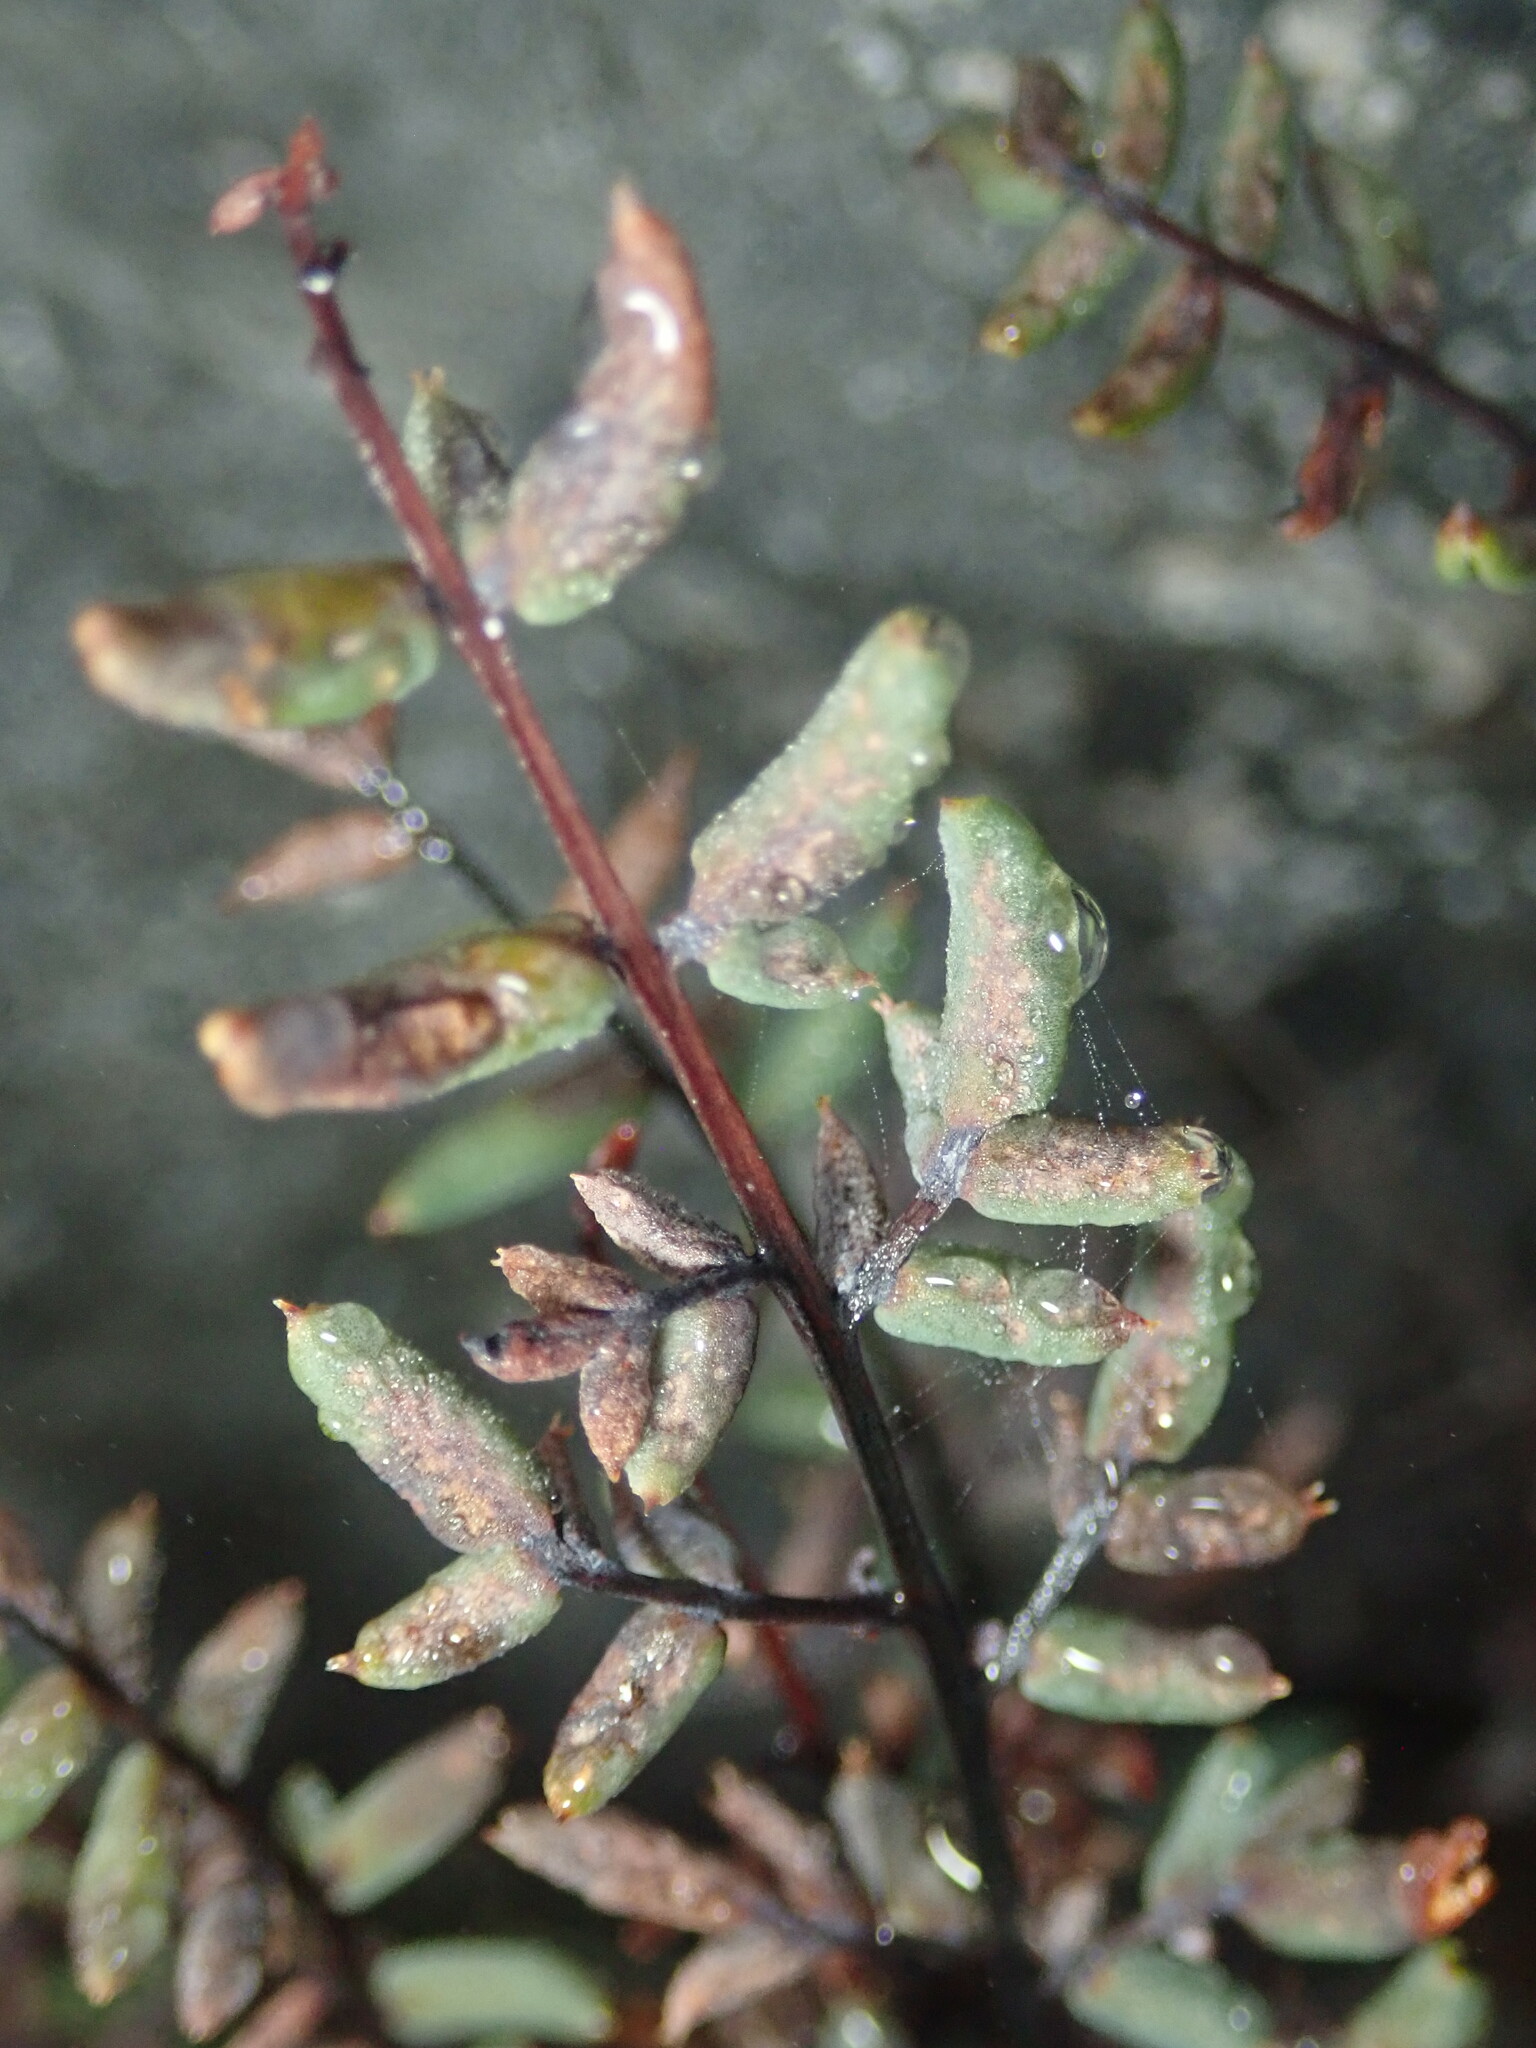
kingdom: Plantae
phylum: Tracheophyta
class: Polypodiopsida
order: Polypodiales
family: Pteridaceae
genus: Pellaea
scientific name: Pellaea mucronata
